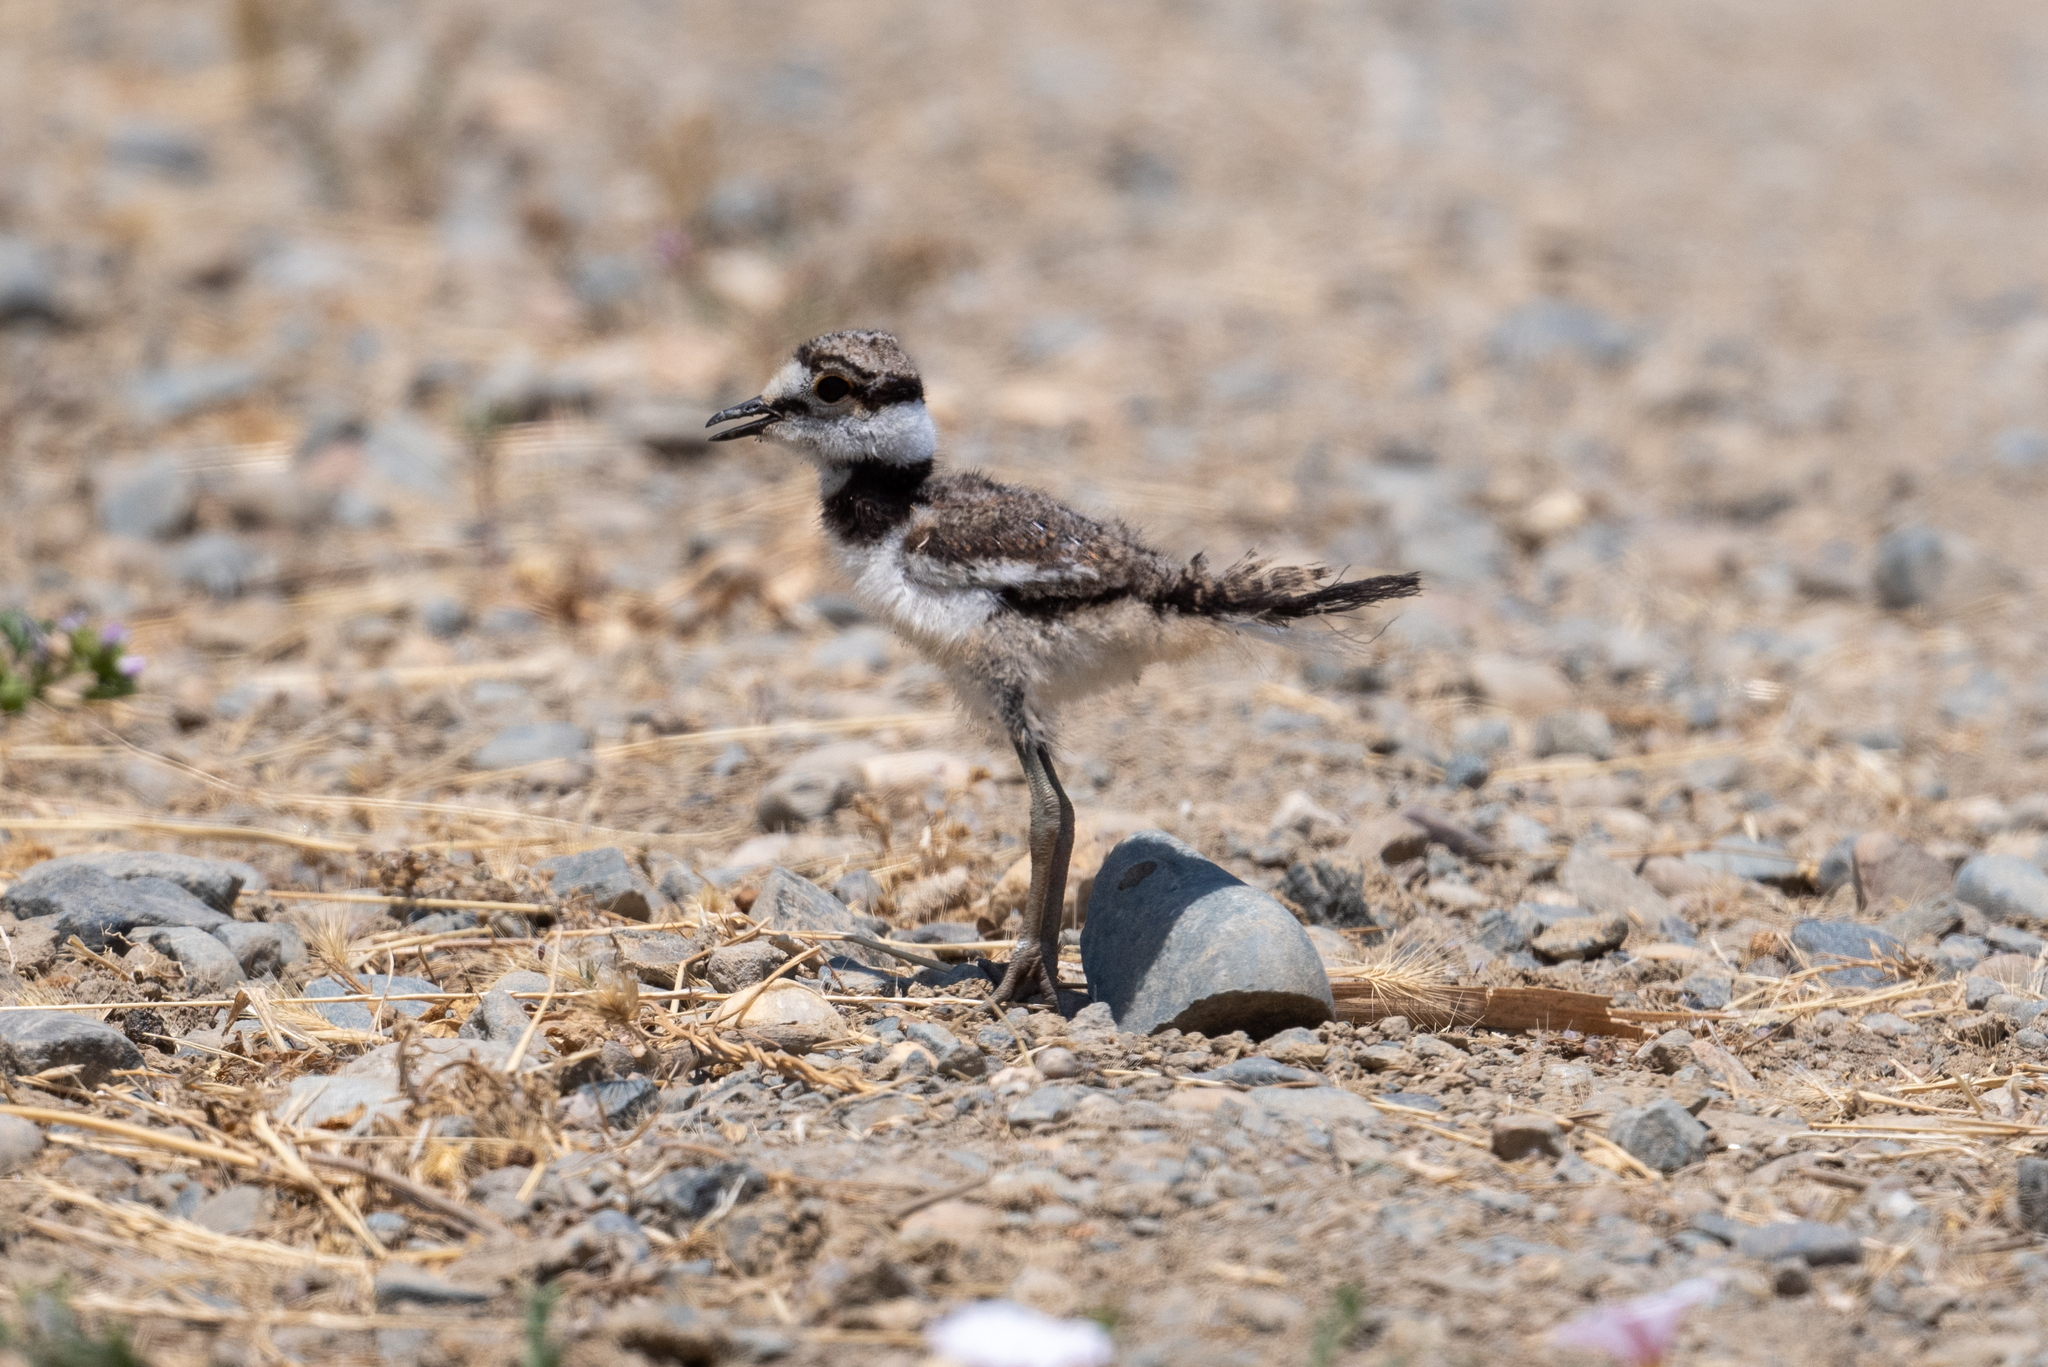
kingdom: Animalia
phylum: Chordata
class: Aves
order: Charadriiformes
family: Charadriidae
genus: Charadrius
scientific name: Charadrius vociferus
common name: Killdeer
